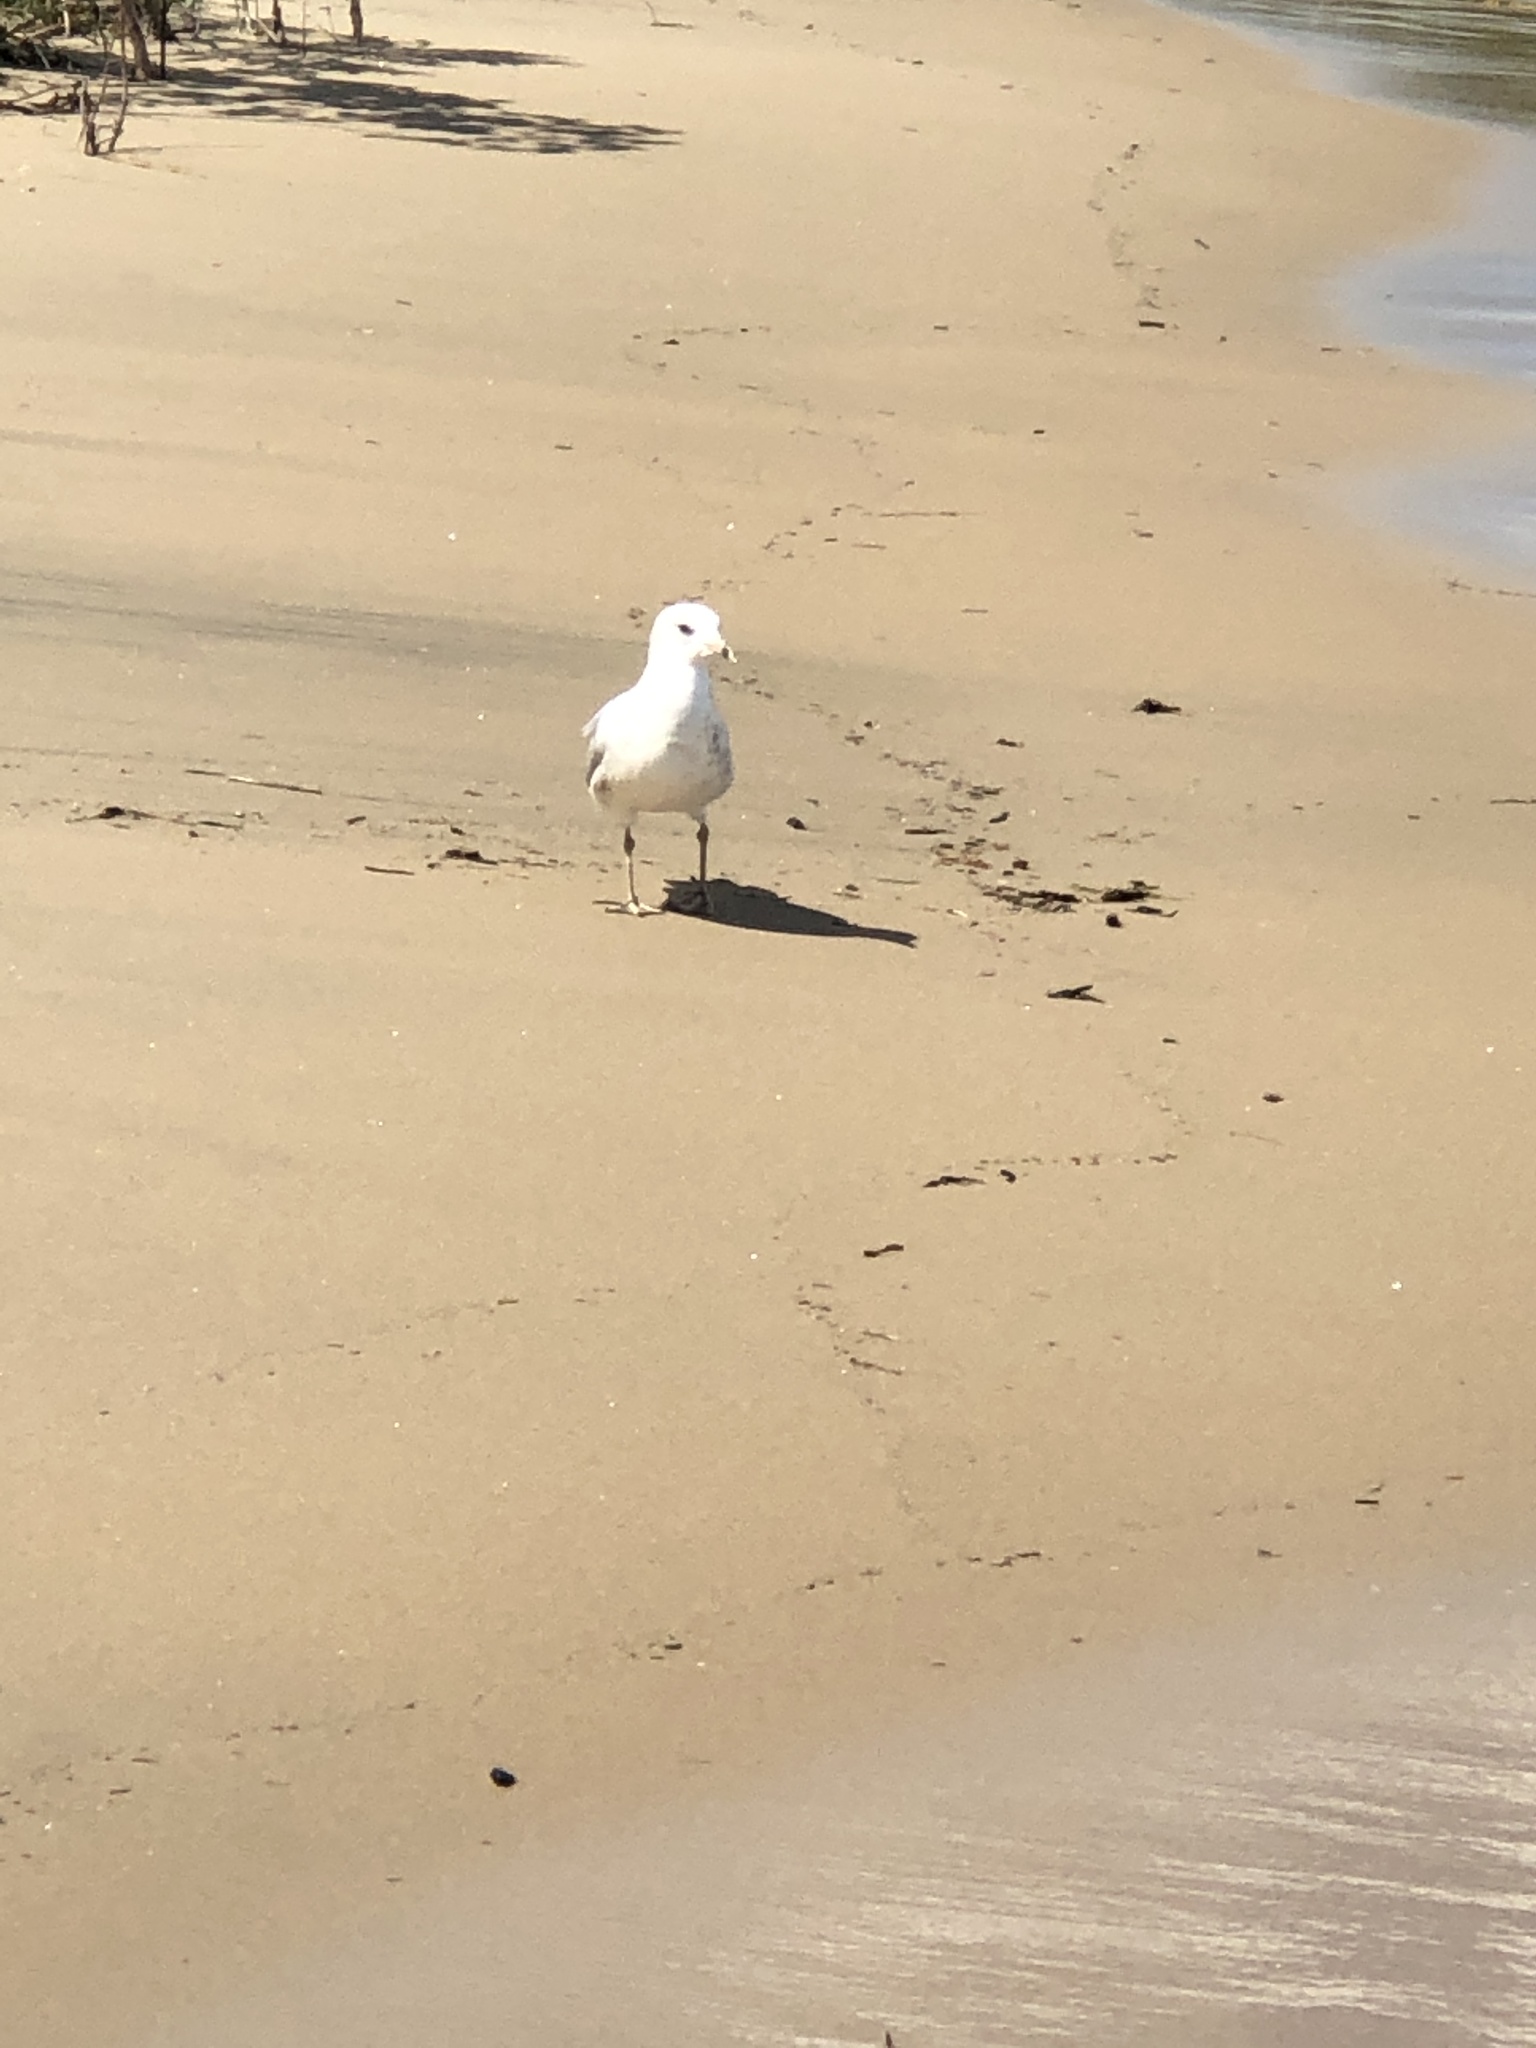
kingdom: Animalia
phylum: Chordata
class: Aves
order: Charadriiformes
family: Laridae
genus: Larus
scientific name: Larus delawarensis
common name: Ring-billed gull
